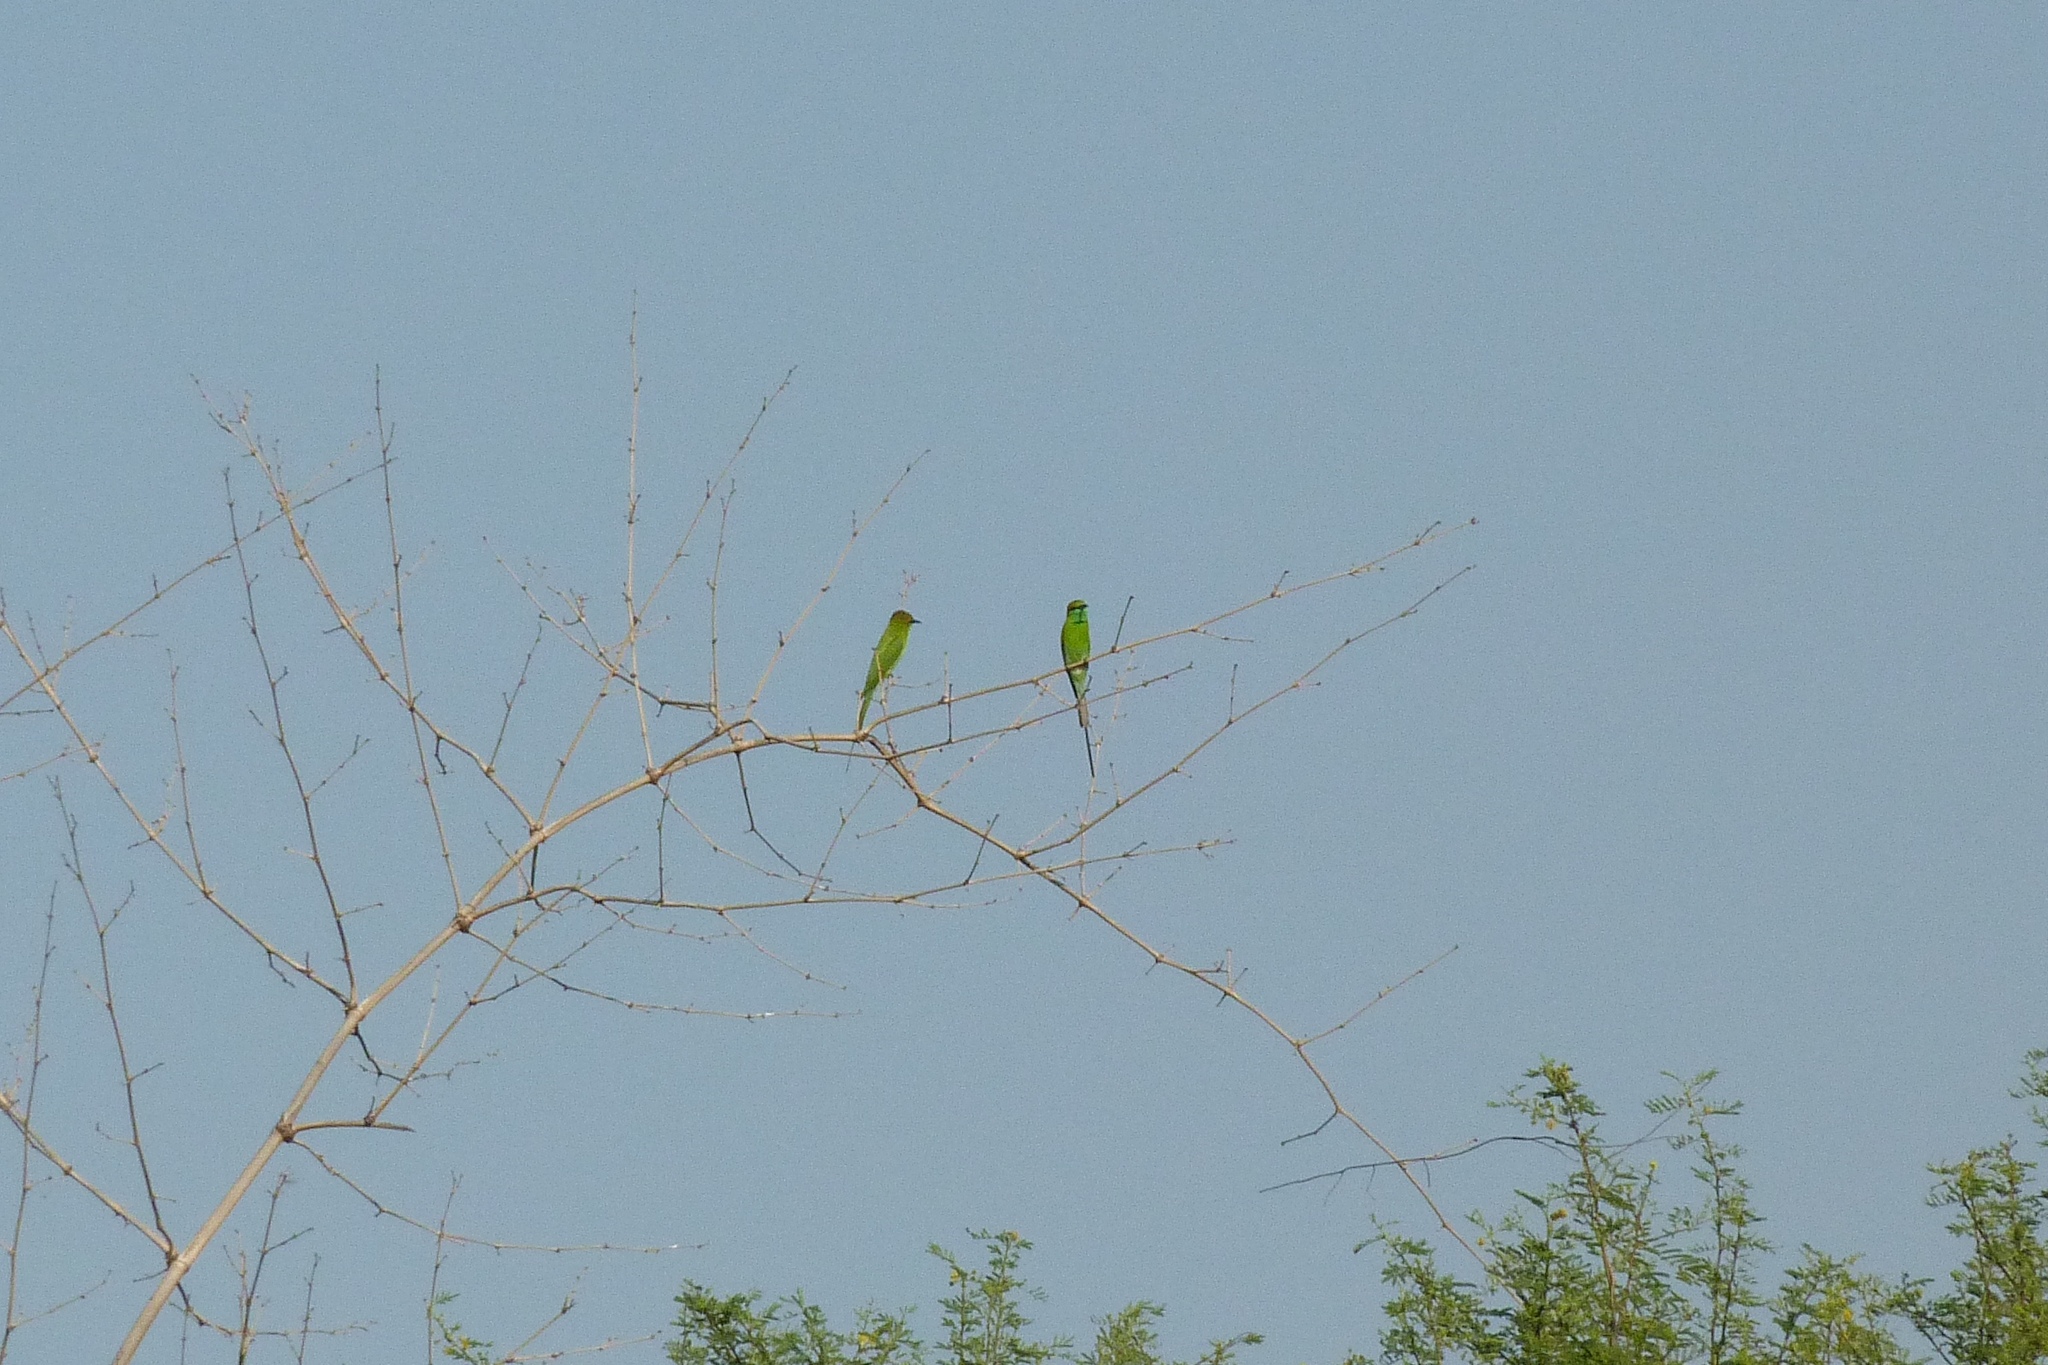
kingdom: Animalia
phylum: Chordata
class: Aves
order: Coraciiformes
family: Meropidae
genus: Merops
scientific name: Merops orientalis
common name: Green bee-eater
